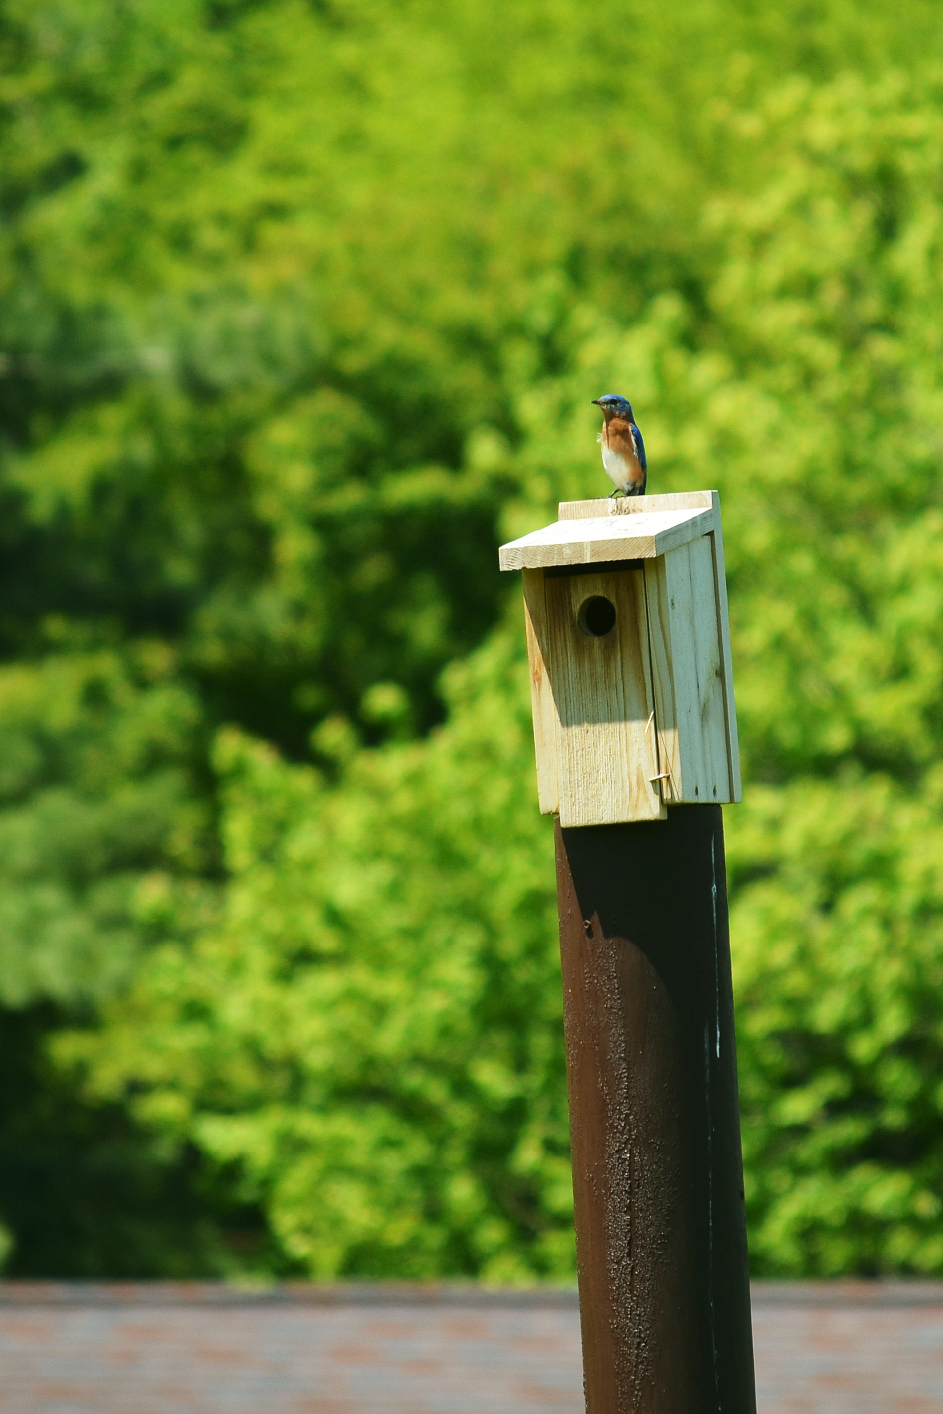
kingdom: Animalia
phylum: Chordata
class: Aves
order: Passeriformes
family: Turdidae
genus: Sialia
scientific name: Sialia sialis
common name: Eastern bluebird
